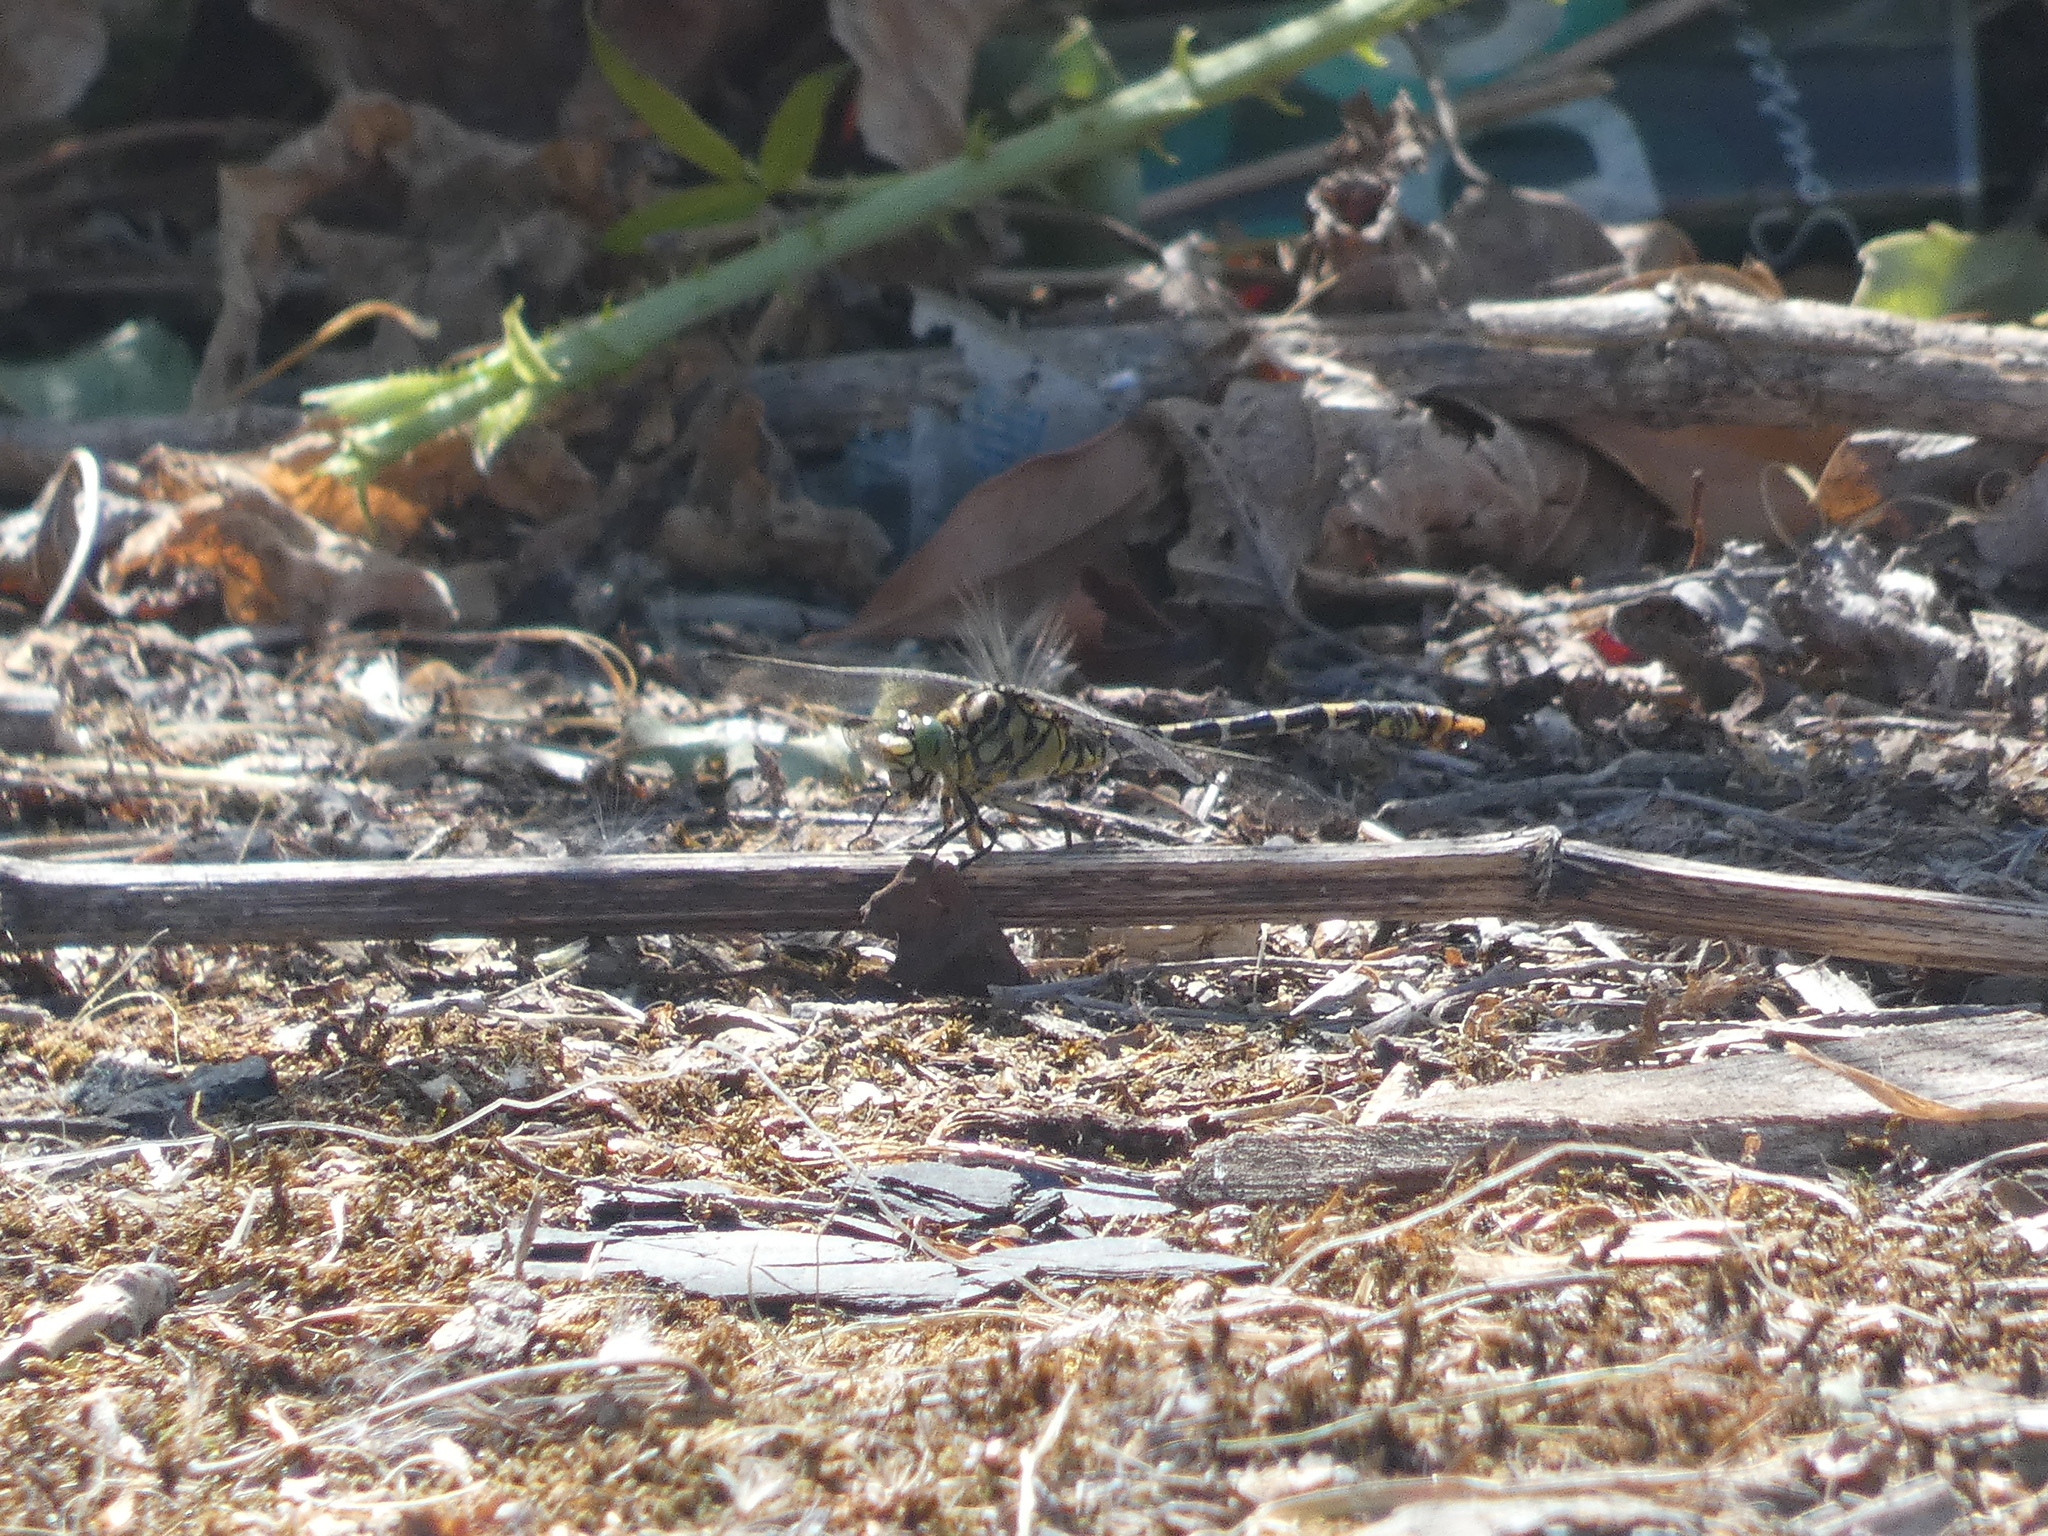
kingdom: Animalia
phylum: Arthropoda
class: Insecta
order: Odonata
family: Gomphidae
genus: Onychogomphus
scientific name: Onychogomphus forcipatus
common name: Small pincertail
